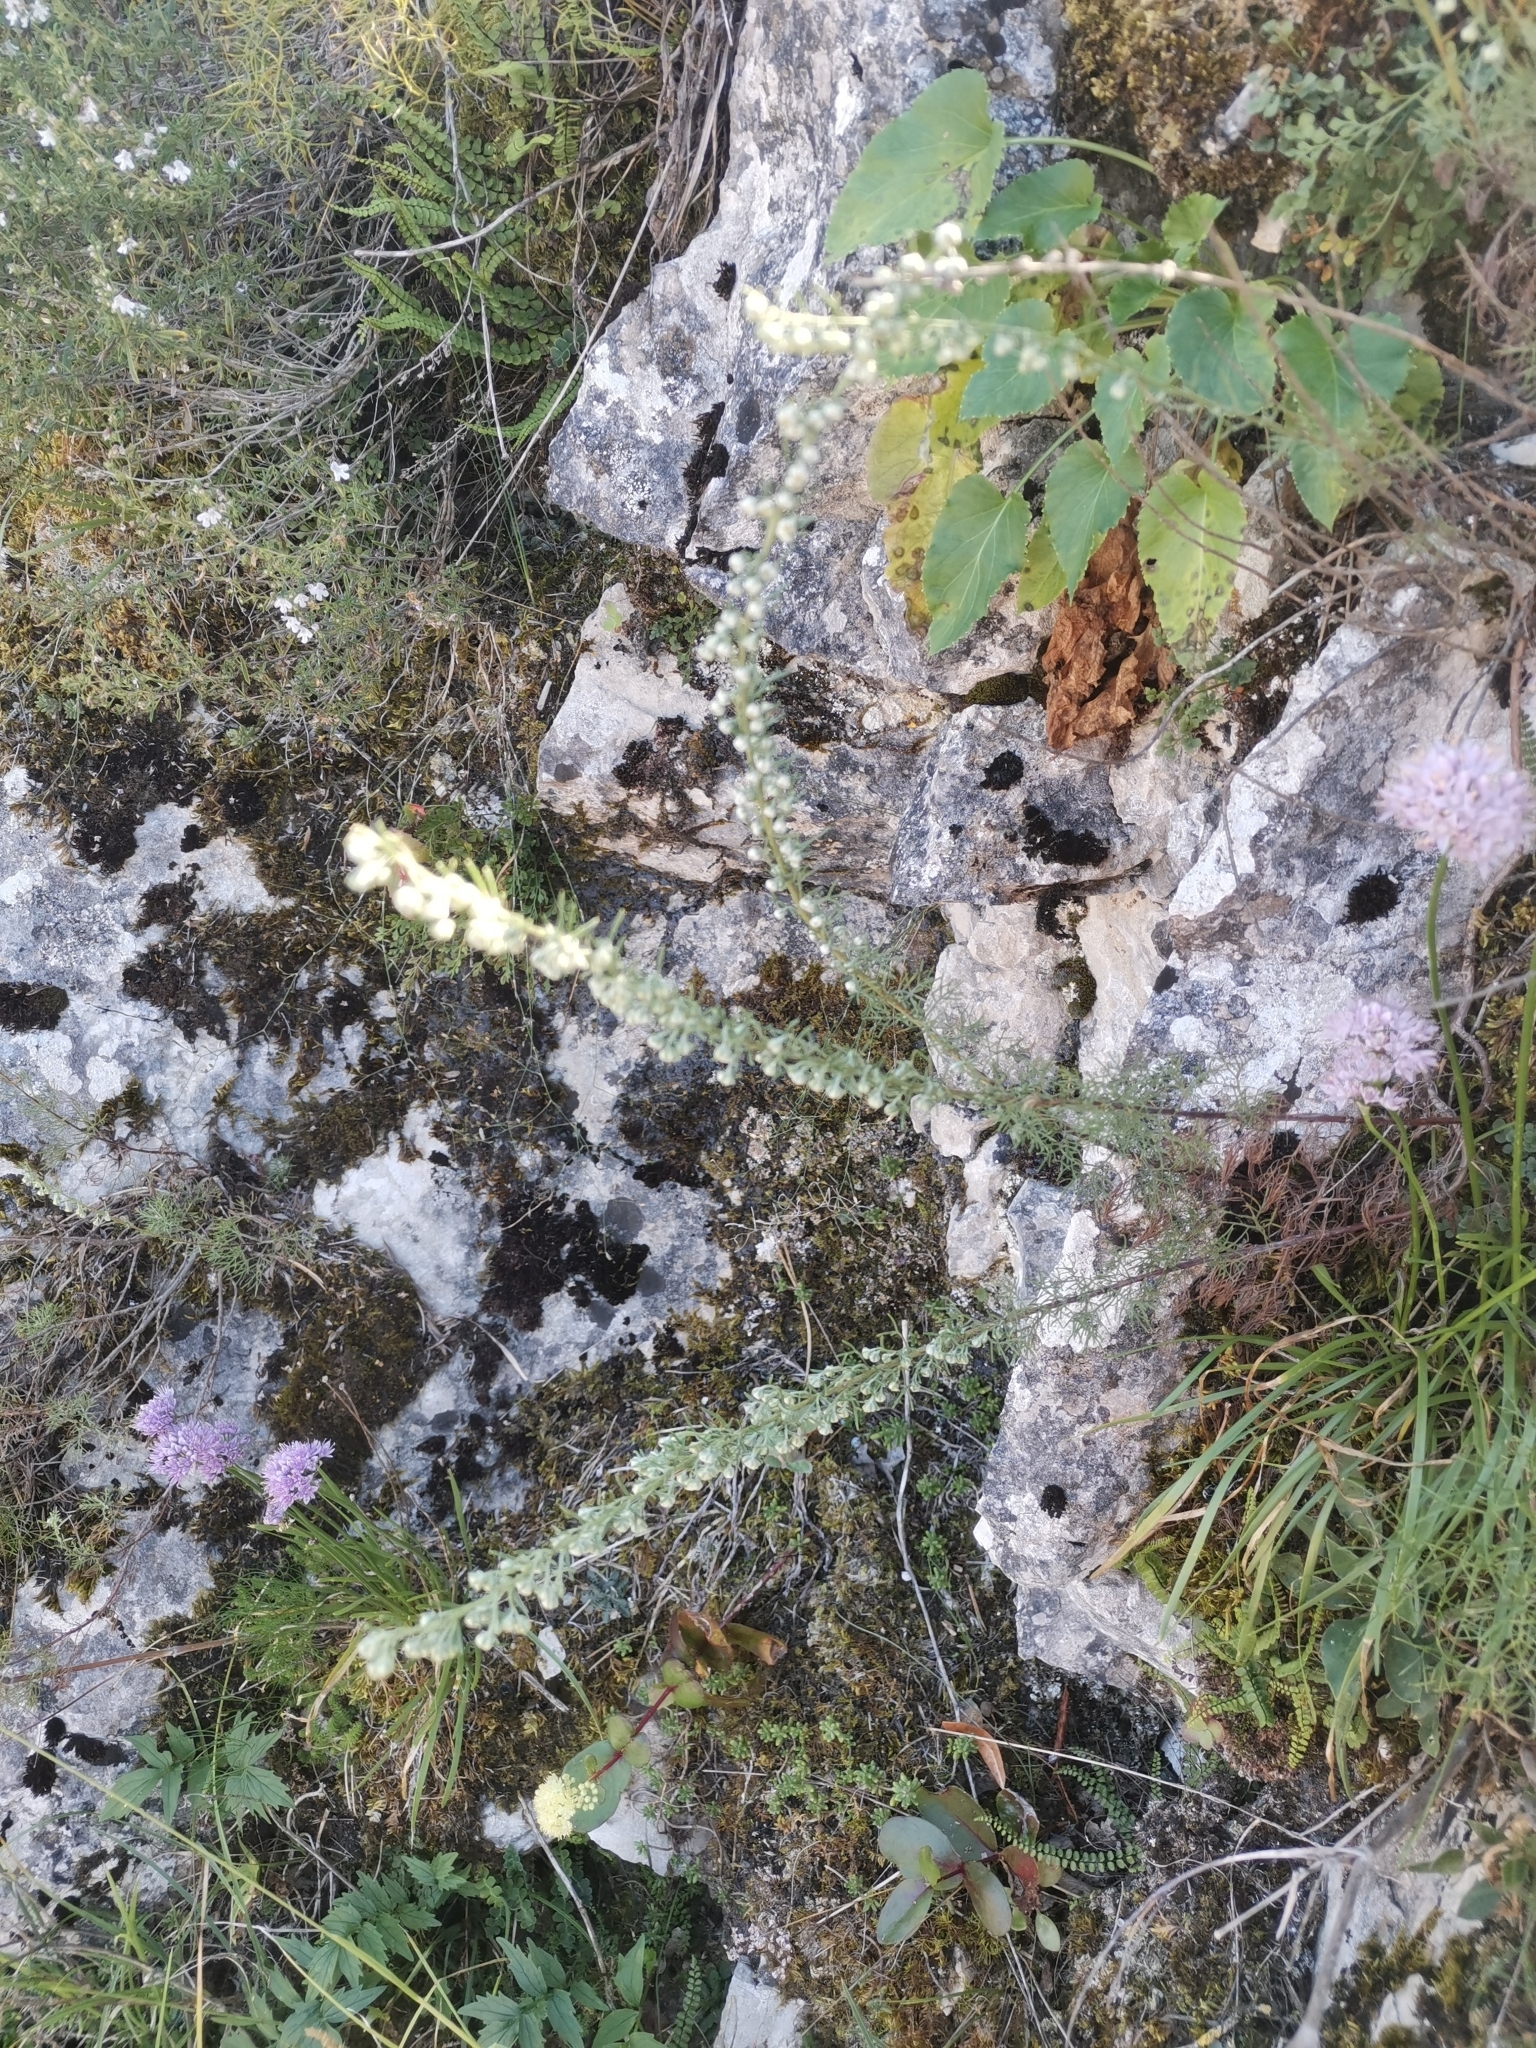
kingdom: Plantae
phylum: Tracheophyta
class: Magnoliopsida
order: Asterales
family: Asteraceae
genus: Artemisia
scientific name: Artemisia alba
